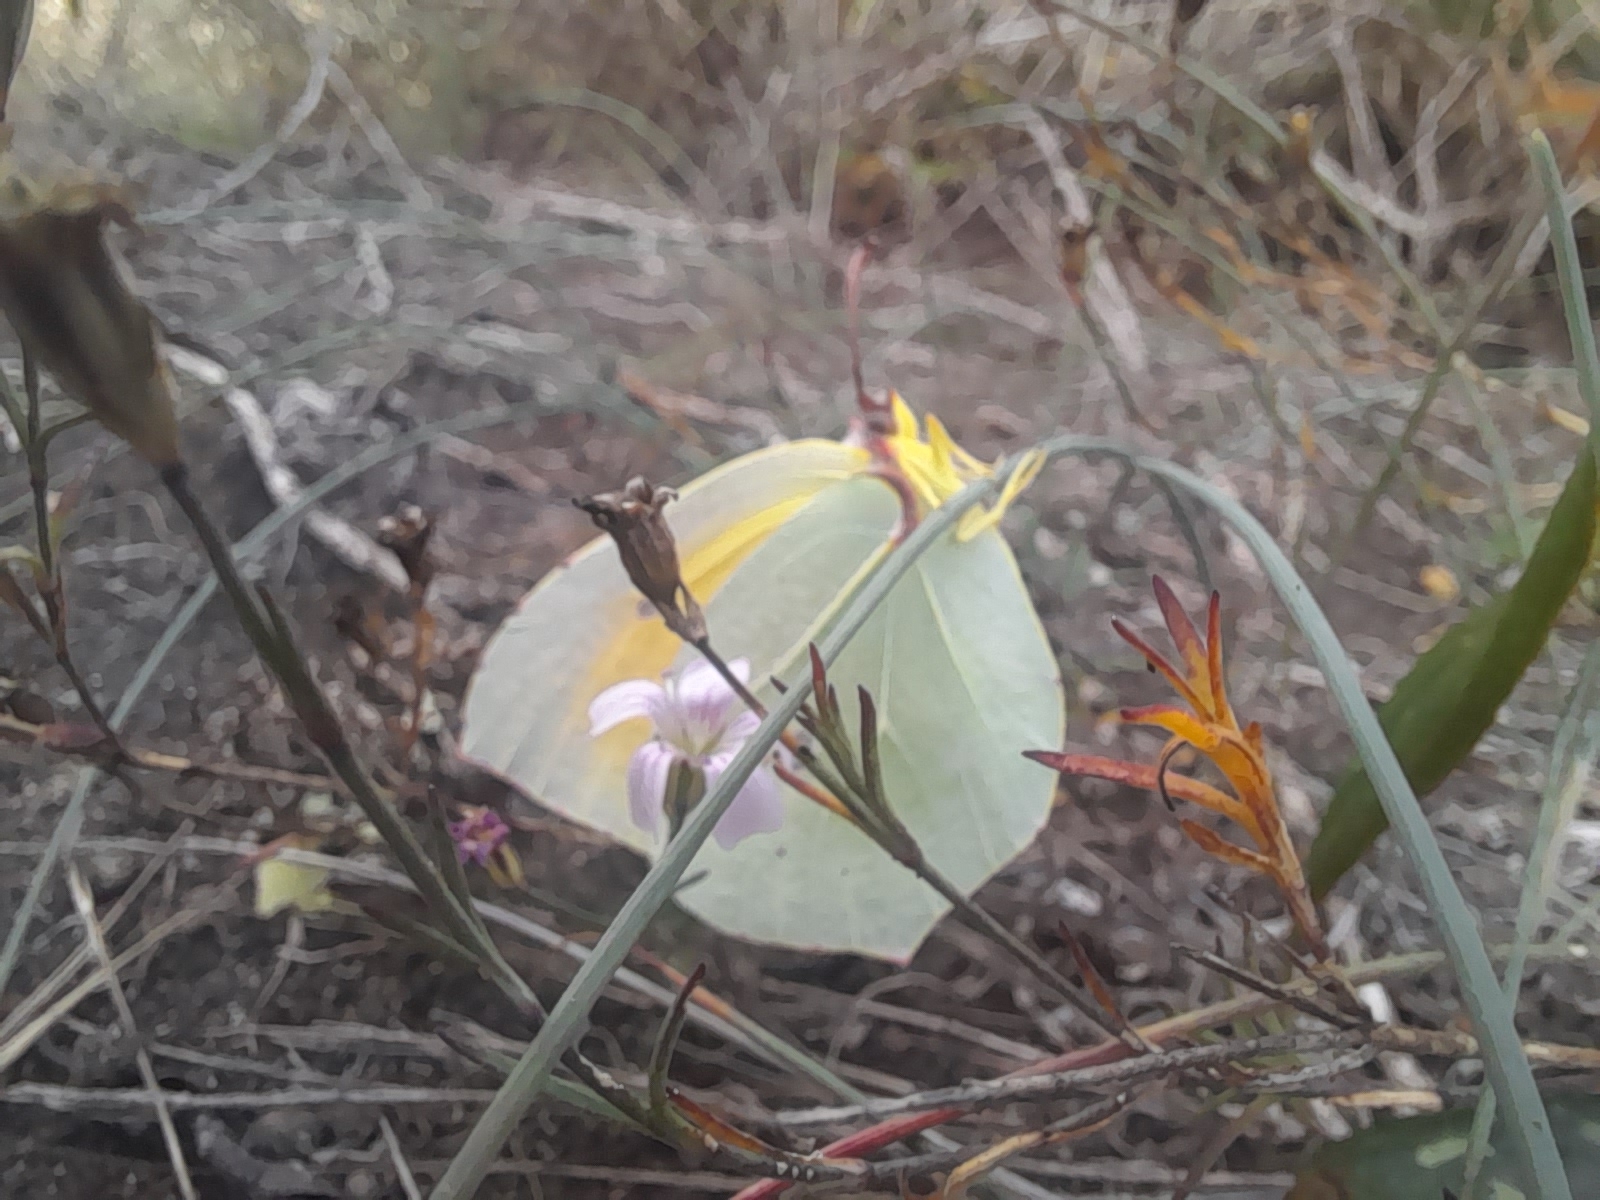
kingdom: Animalia
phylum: Arthropoda
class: Insecta
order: Lepidoptera
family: Pieridae
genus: Gonepteryx
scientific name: Gonepteryx cleopatra
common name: Cleopatra
